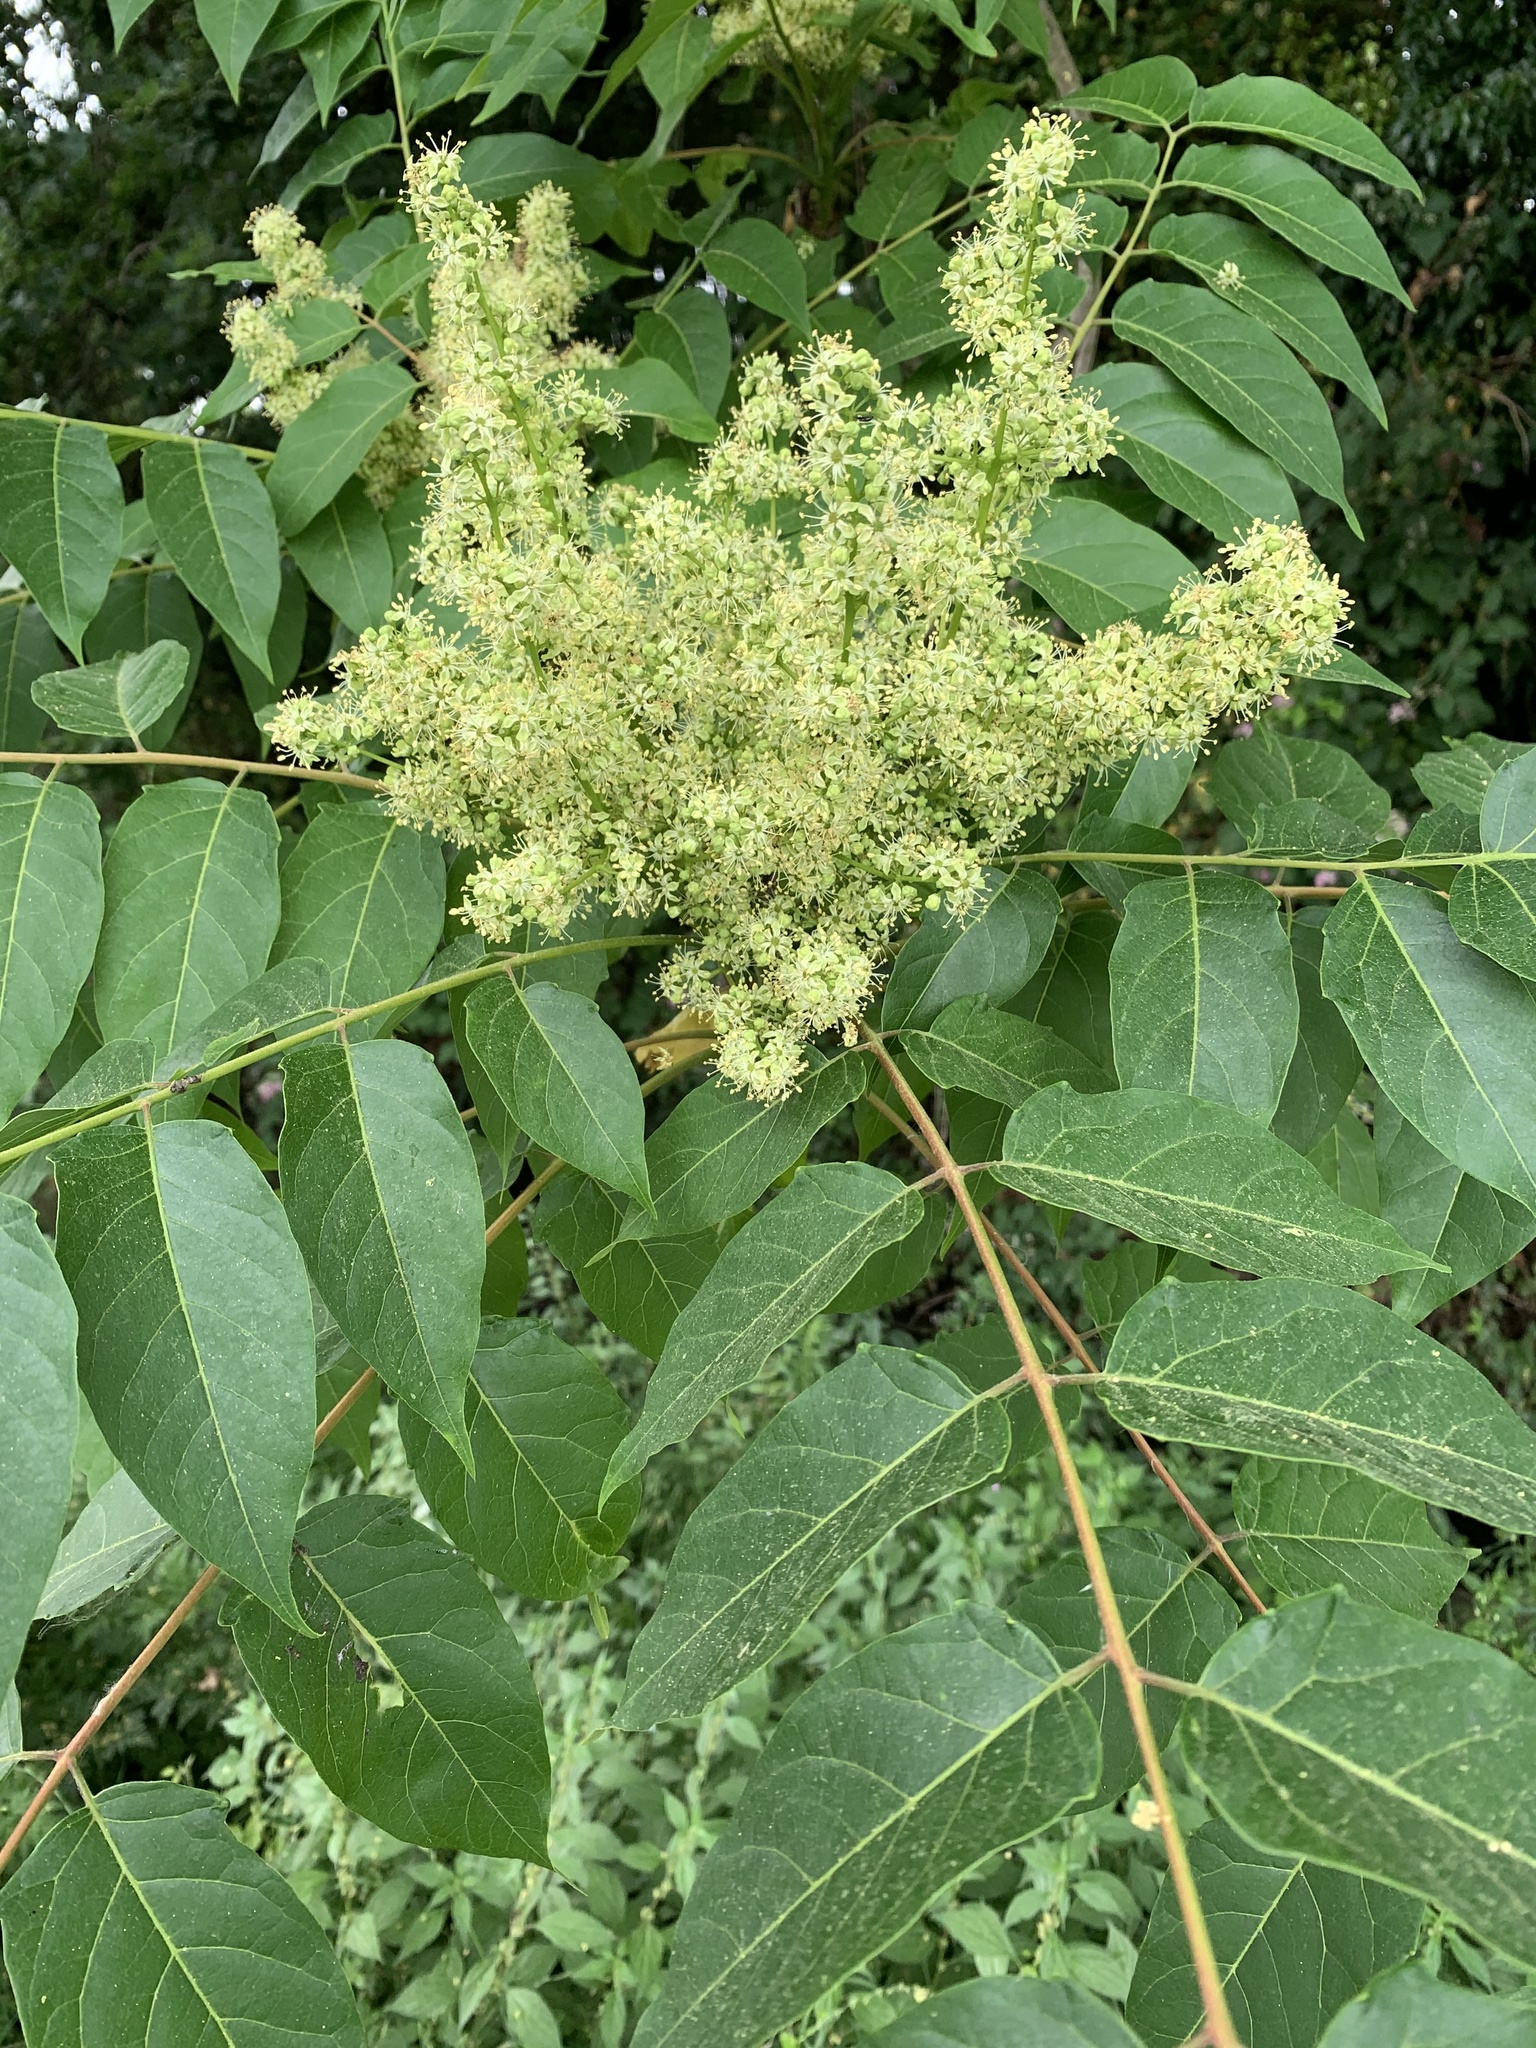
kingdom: Plantae
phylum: Tracheophyta
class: Magnoliopsida
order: Sapindales
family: Simaroubaceae
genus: Ailanthus
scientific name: Ailanthus altissima
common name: Tree-of-heaven
